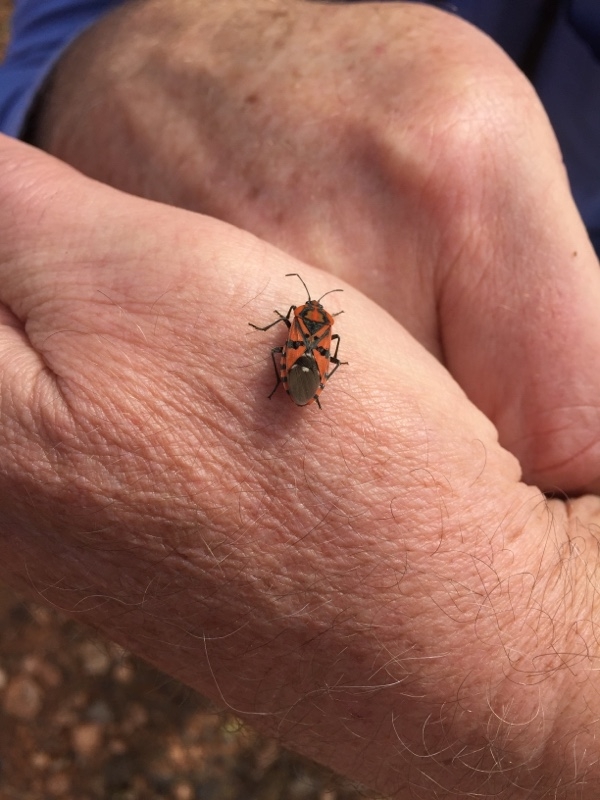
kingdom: Animalia
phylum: Arthropoda
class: Insecta
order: Hemiptera
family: Lygaeidae
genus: Spilostethus
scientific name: Spilostethus pandurus
